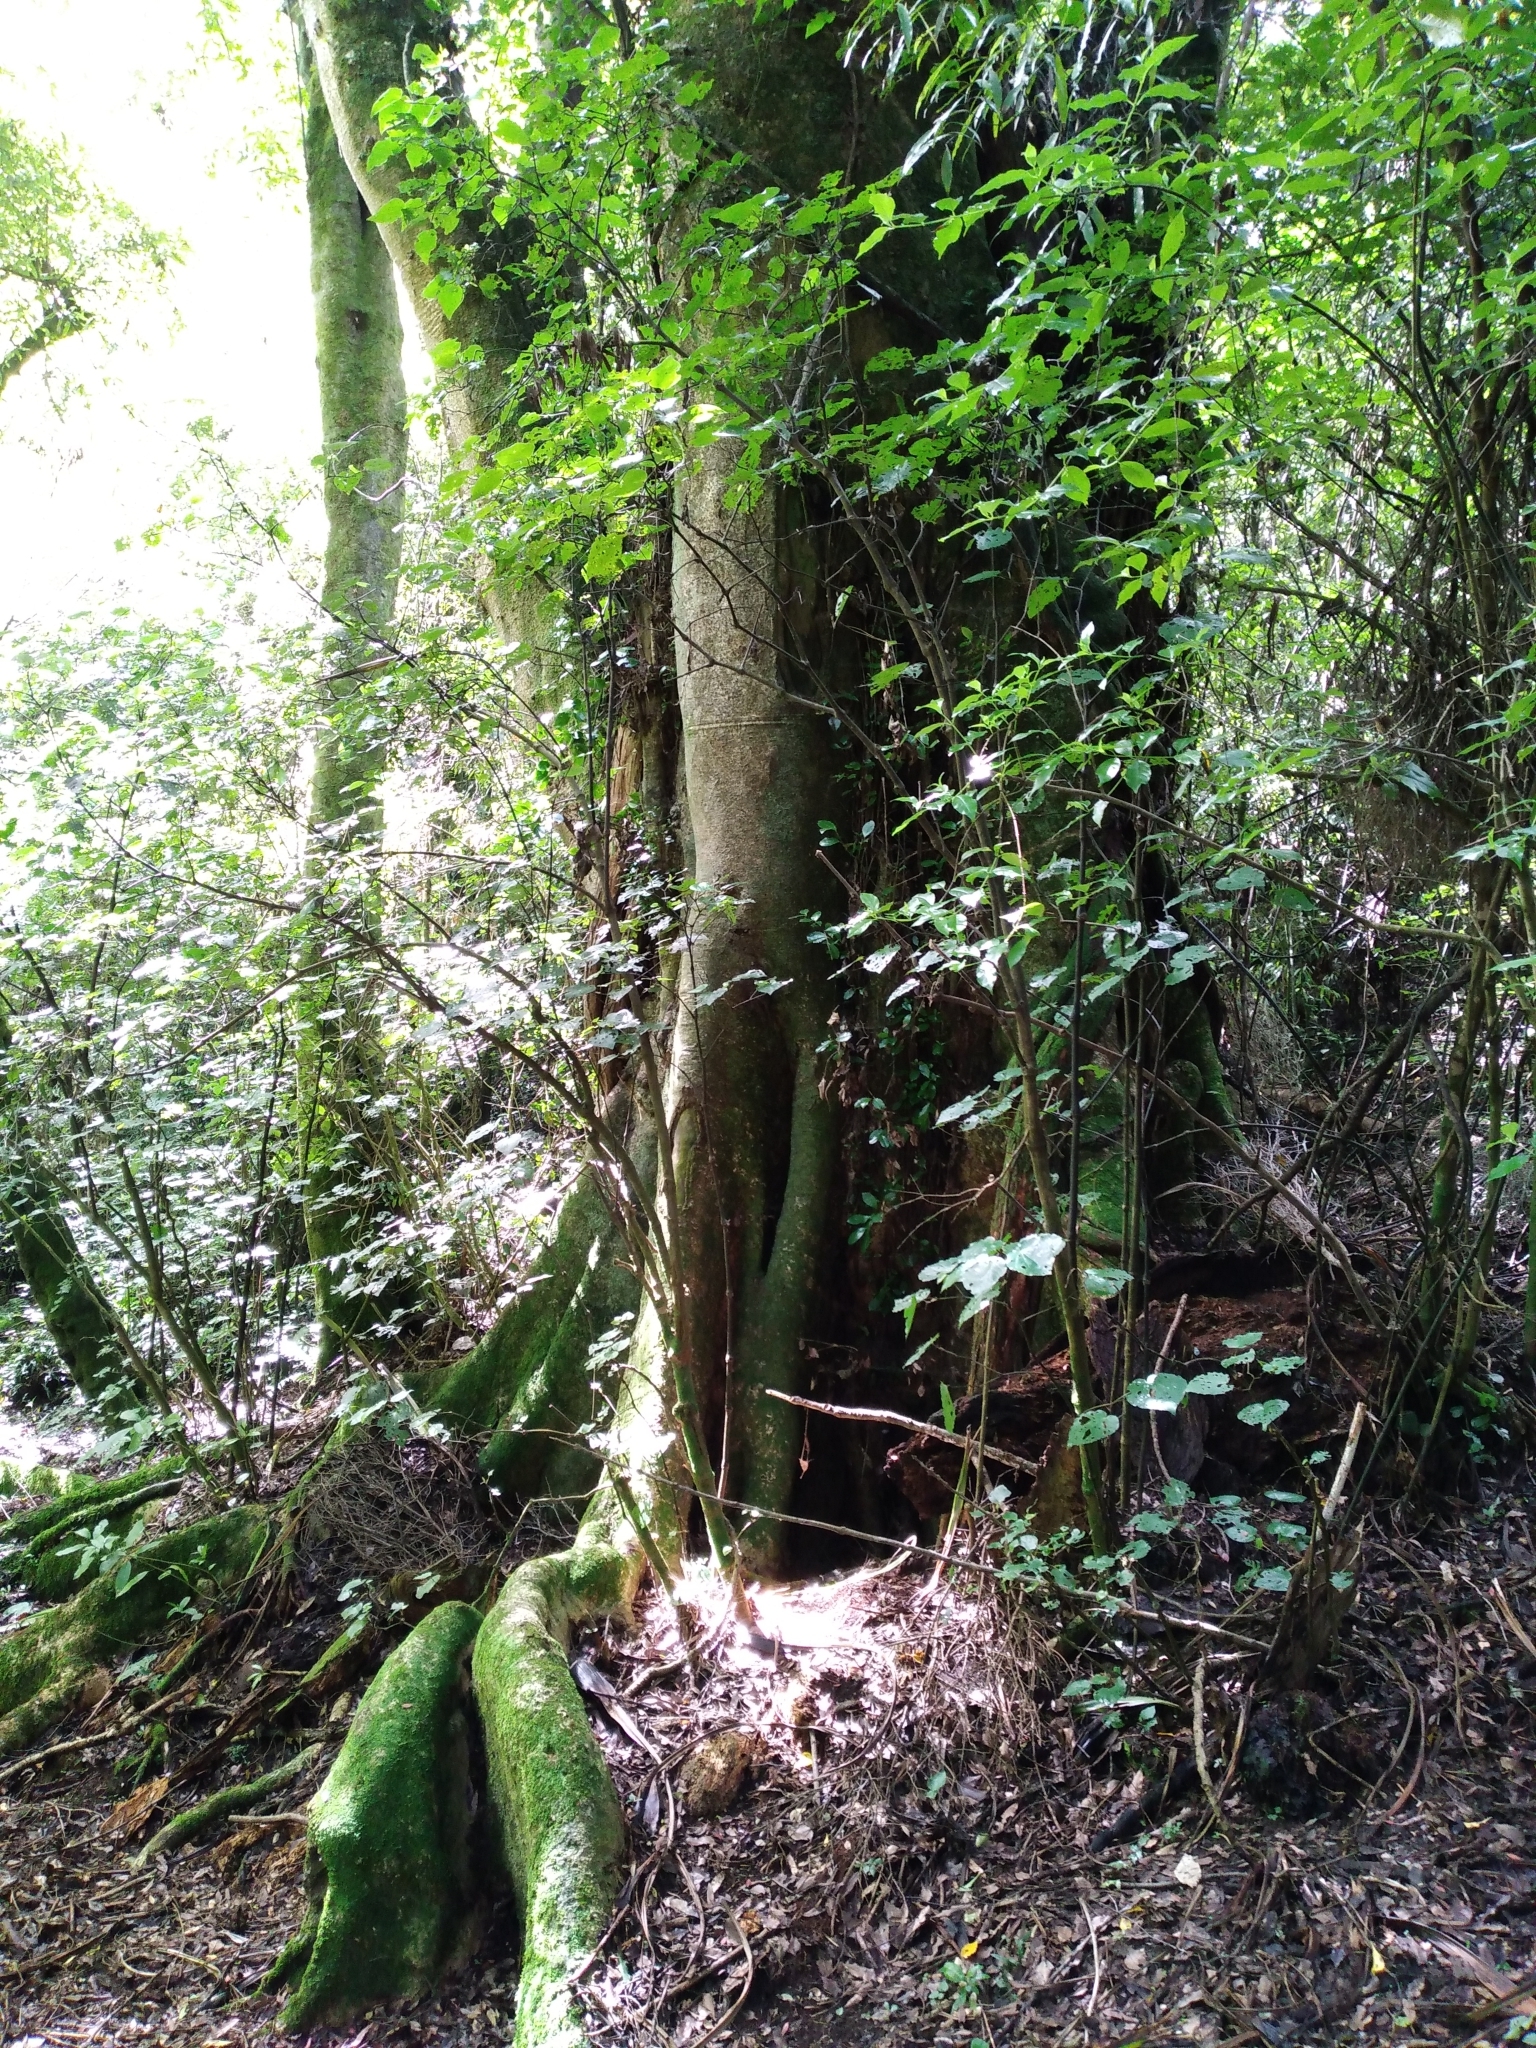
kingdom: Plantae
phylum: Tracheophyta
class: Magnoliopsida
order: Laurales
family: Atherospermataceae
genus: Laurelia
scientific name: Laurelia novae-zelandiae
